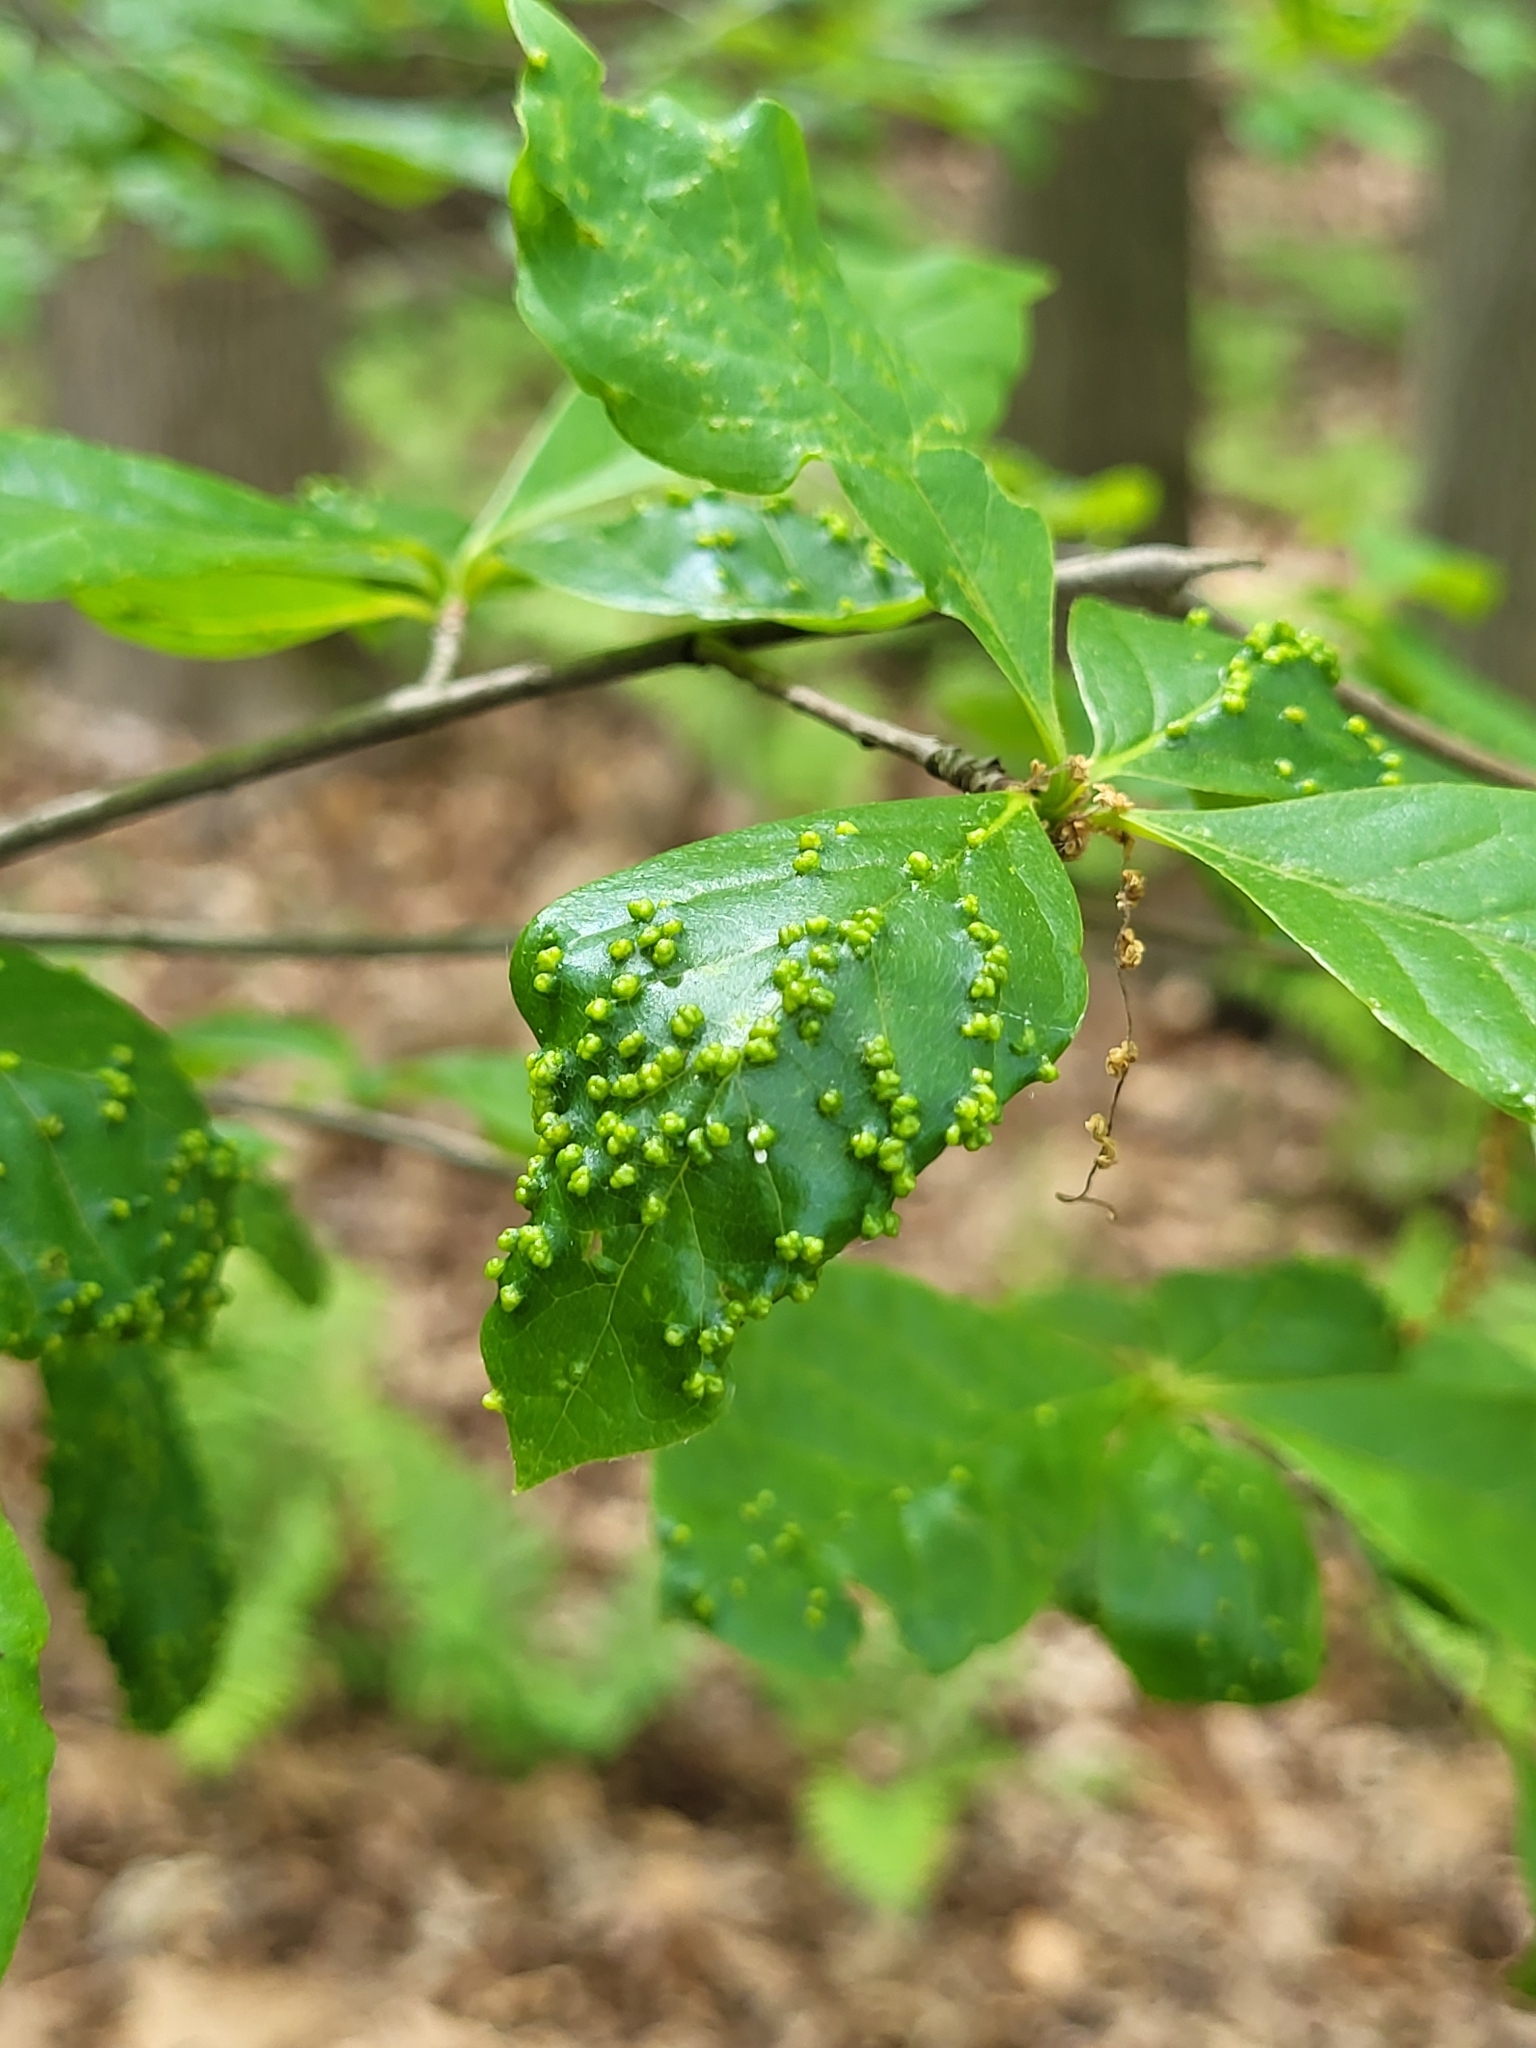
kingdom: Animalia
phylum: Arthropoda
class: Arachnida
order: Trombidiformes
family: Eriophyidae
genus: Aceria
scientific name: Aceria
